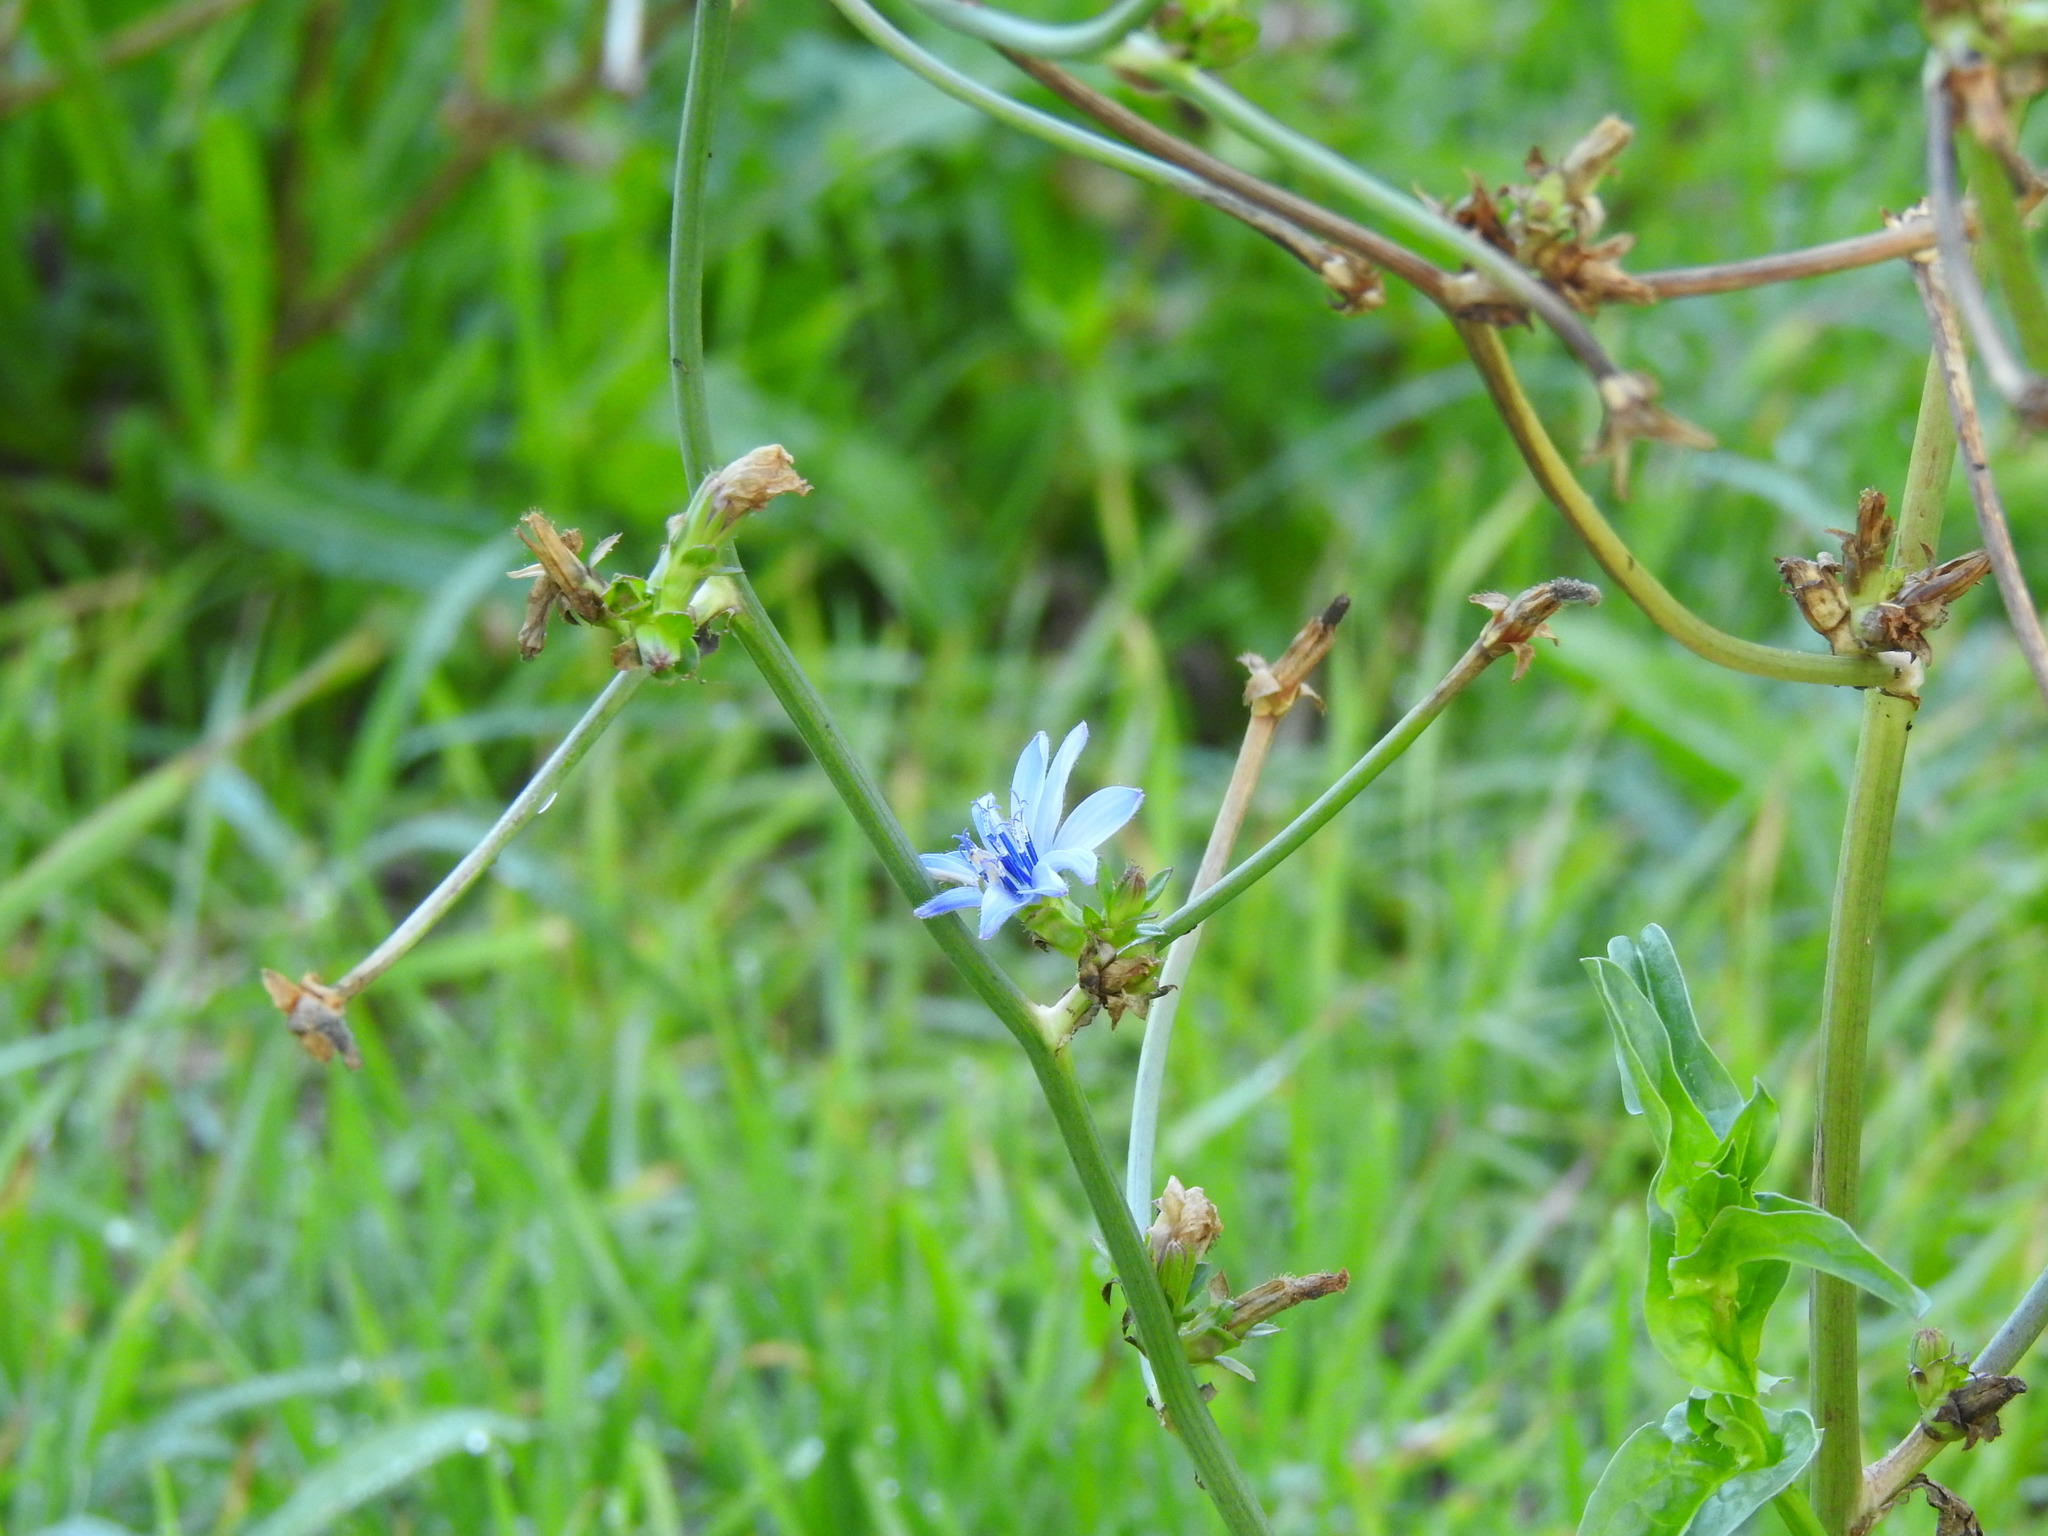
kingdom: Plantae
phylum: Tracheophyta
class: Magnoliopsida
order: Asterales
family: Asteraceae
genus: Cichorium
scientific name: Cichorium intybus
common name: Chicory
